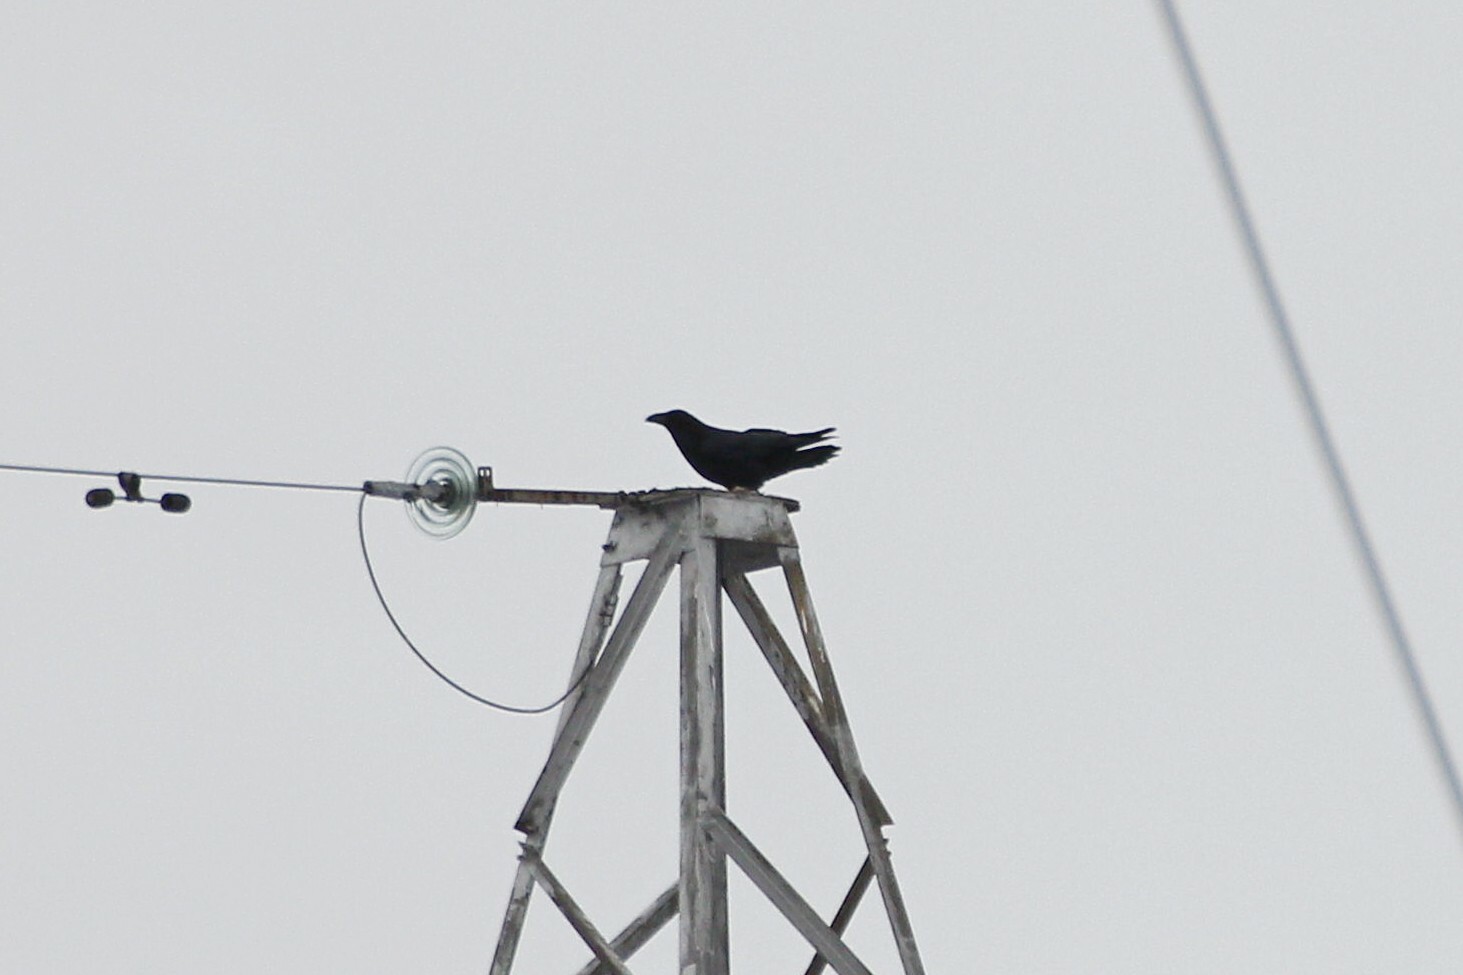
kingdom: Animalia
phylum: Chordata
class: Aves
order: Passeriformes
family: Corvidae
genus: Corvus
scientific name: Corvus corax
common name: Common raven
